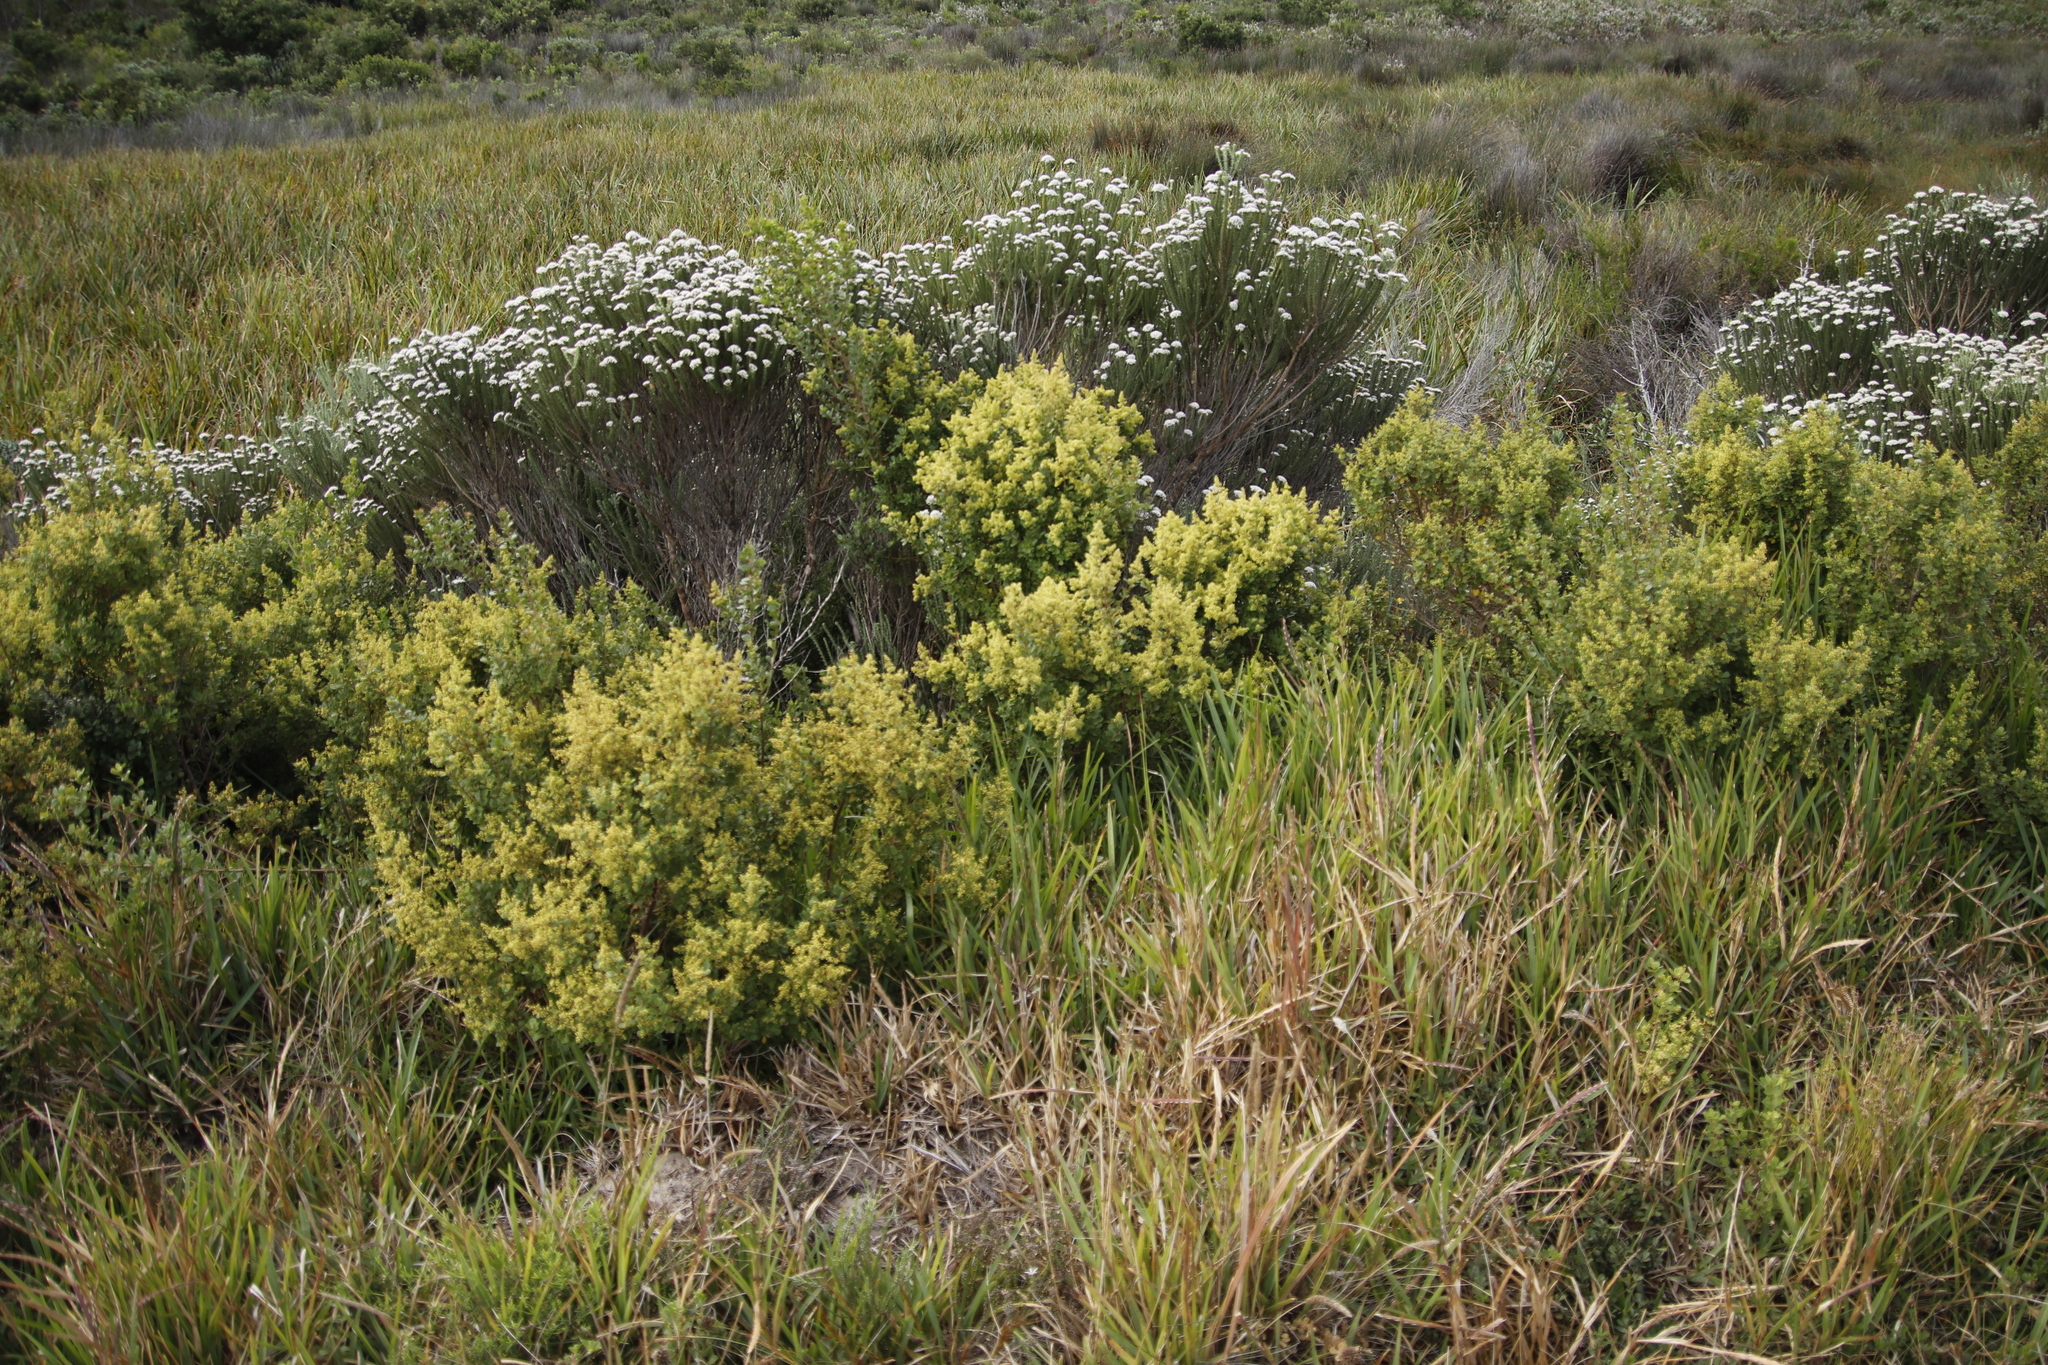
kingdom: Plantae
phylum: Tracheophyta
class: Magnoliopsida
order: Sapindales
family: Anacardiaceae
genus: Searsia
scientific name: Searsia crenata
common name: Crowberry
